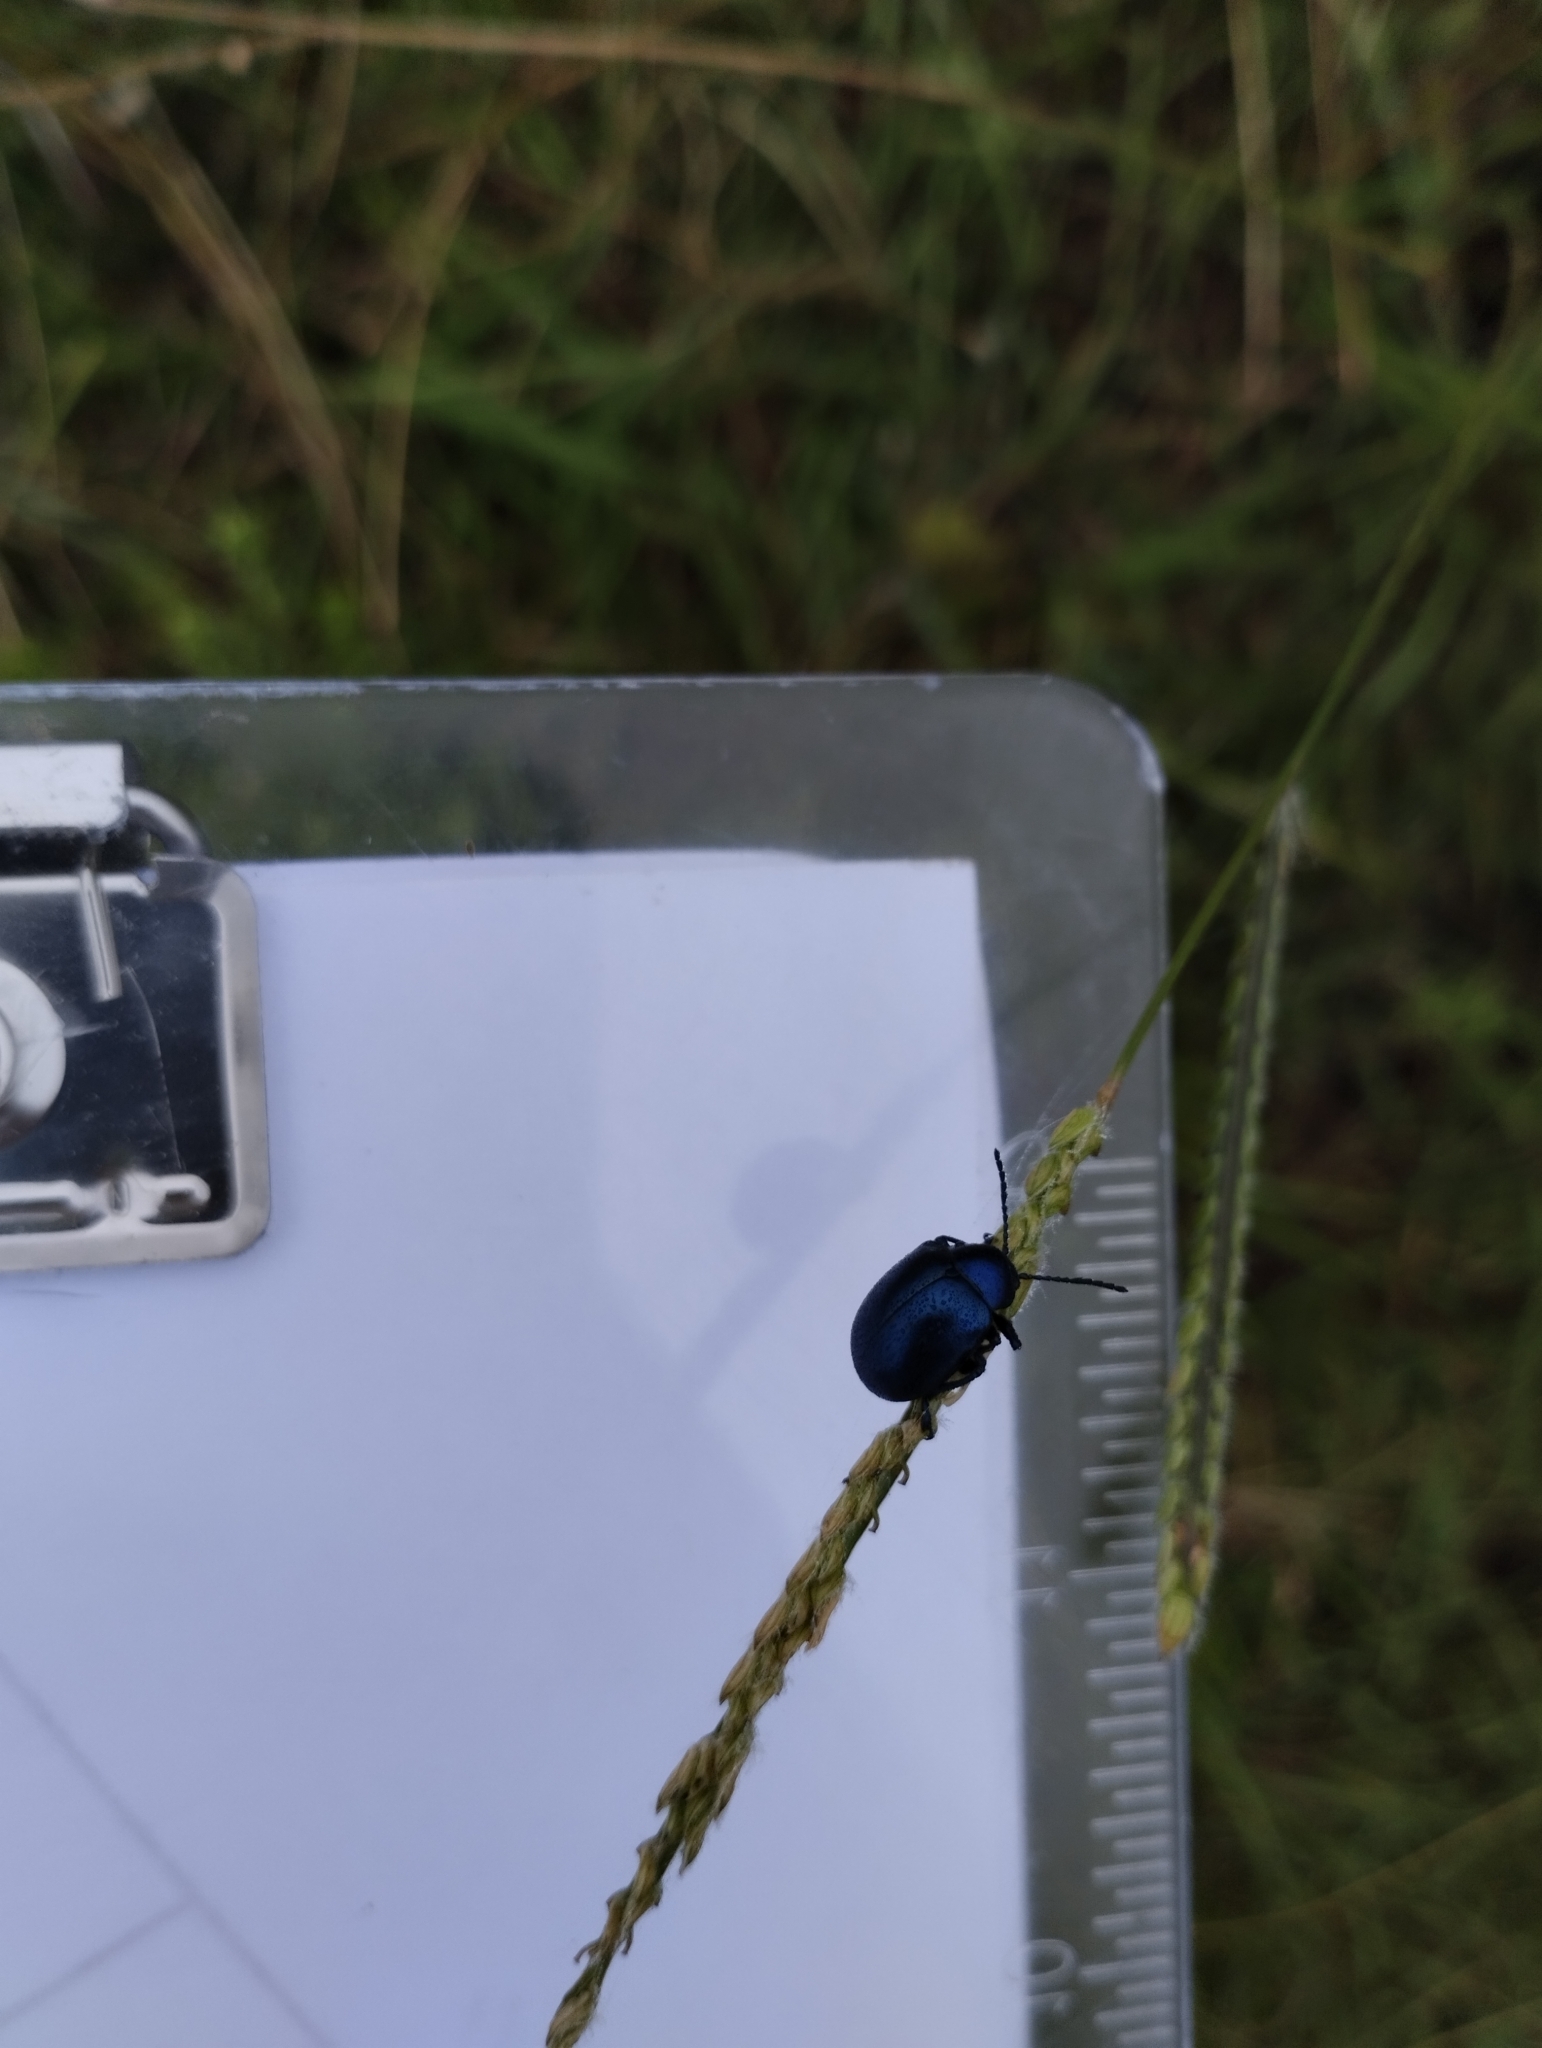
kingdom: Animalia
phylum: Arthropoda
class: Insecta
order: Coleoptera
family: Chrysomelidae
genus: Eumolpus
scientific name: Eumolpus
